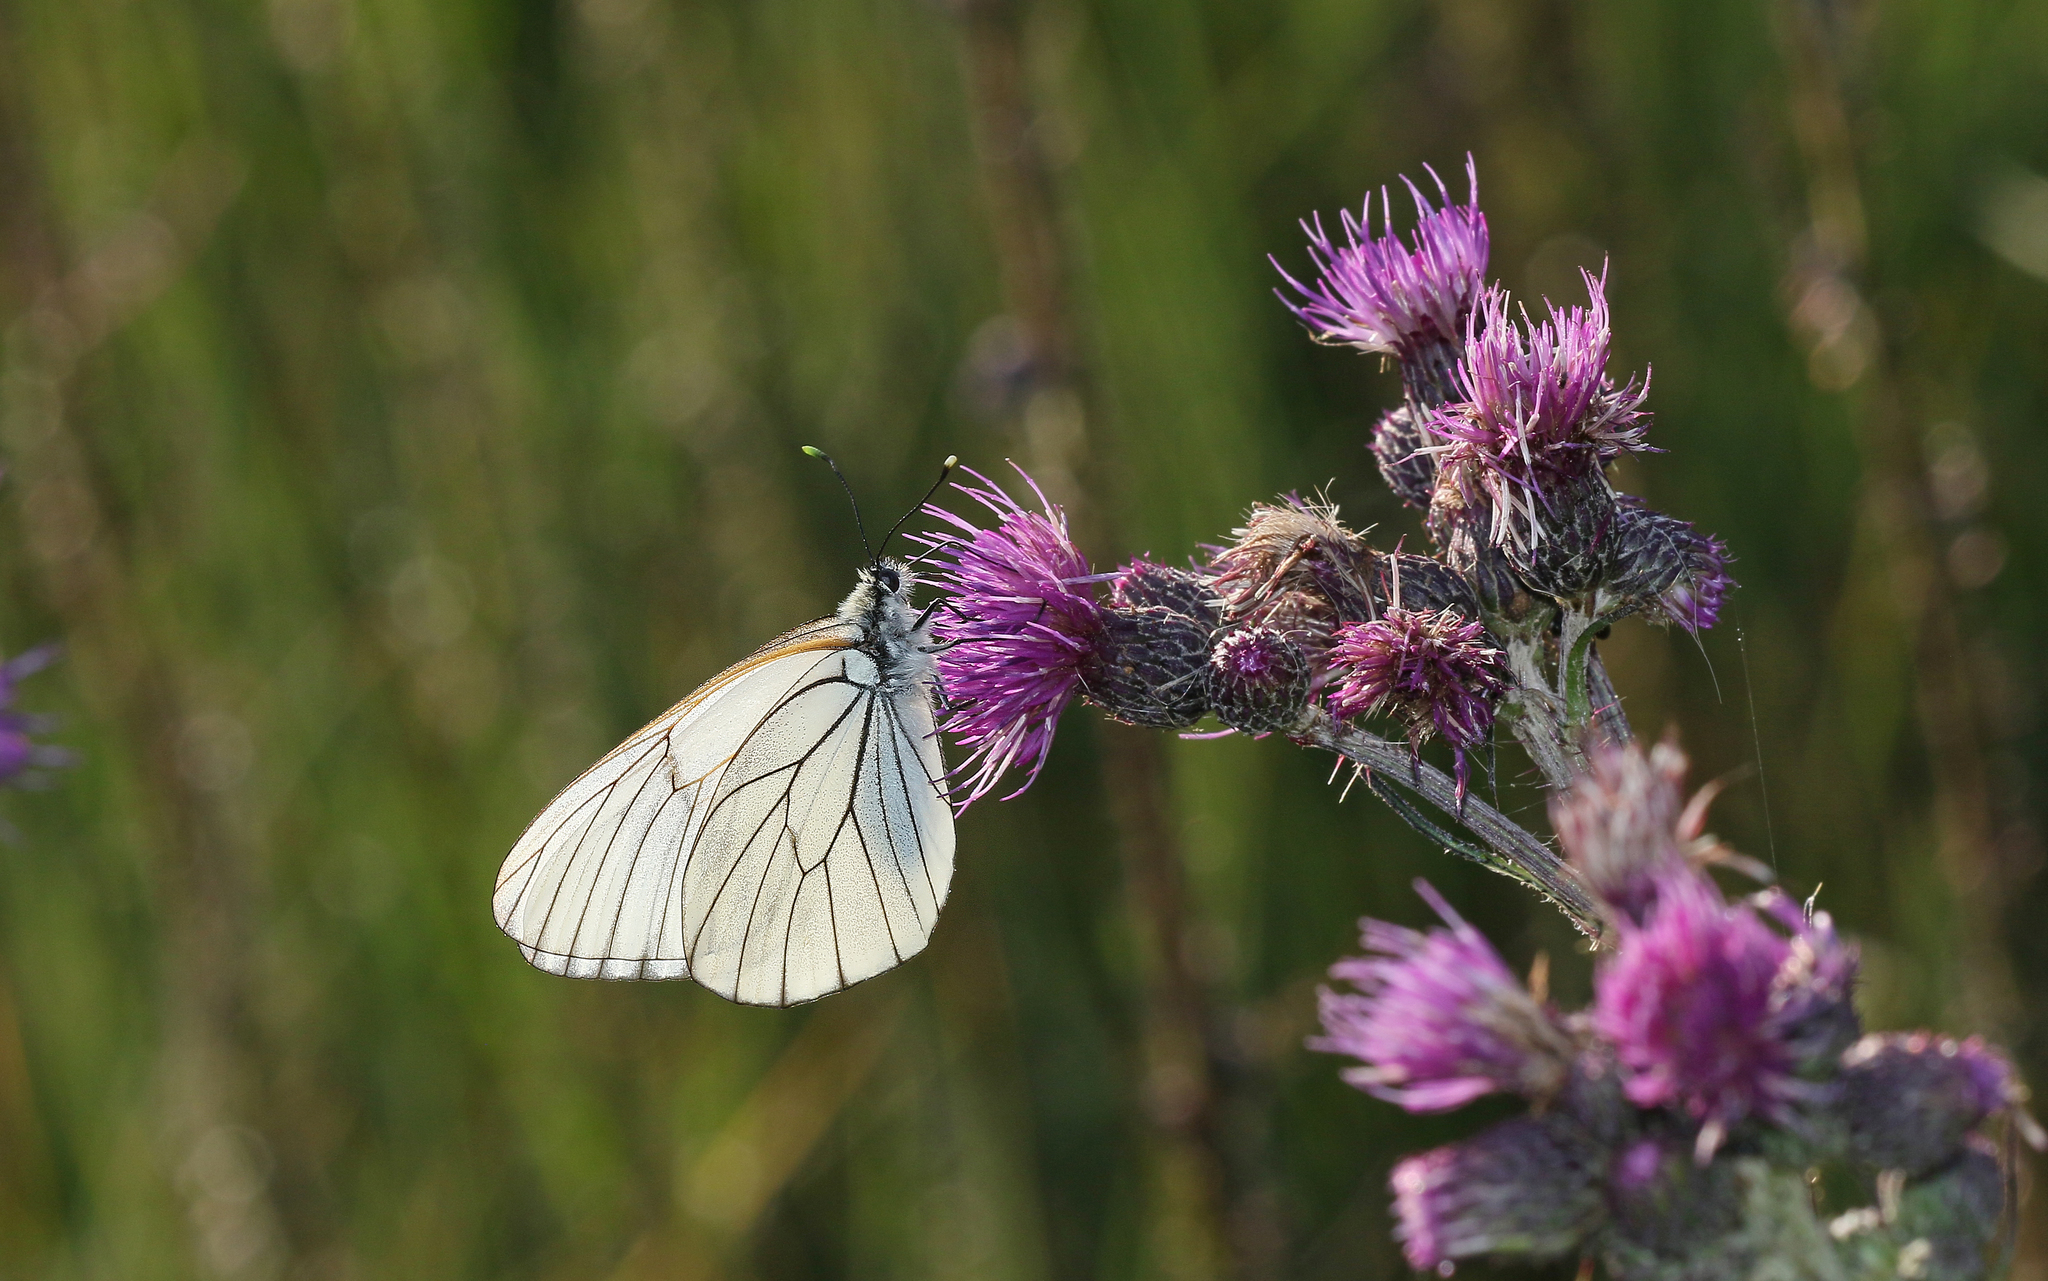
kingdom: Animalia
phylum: Arthropoda
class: Insecta
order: Lepidoptera
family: Pieridae
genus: Aporia
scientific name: Aporia crataegi
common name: Black-veined white
